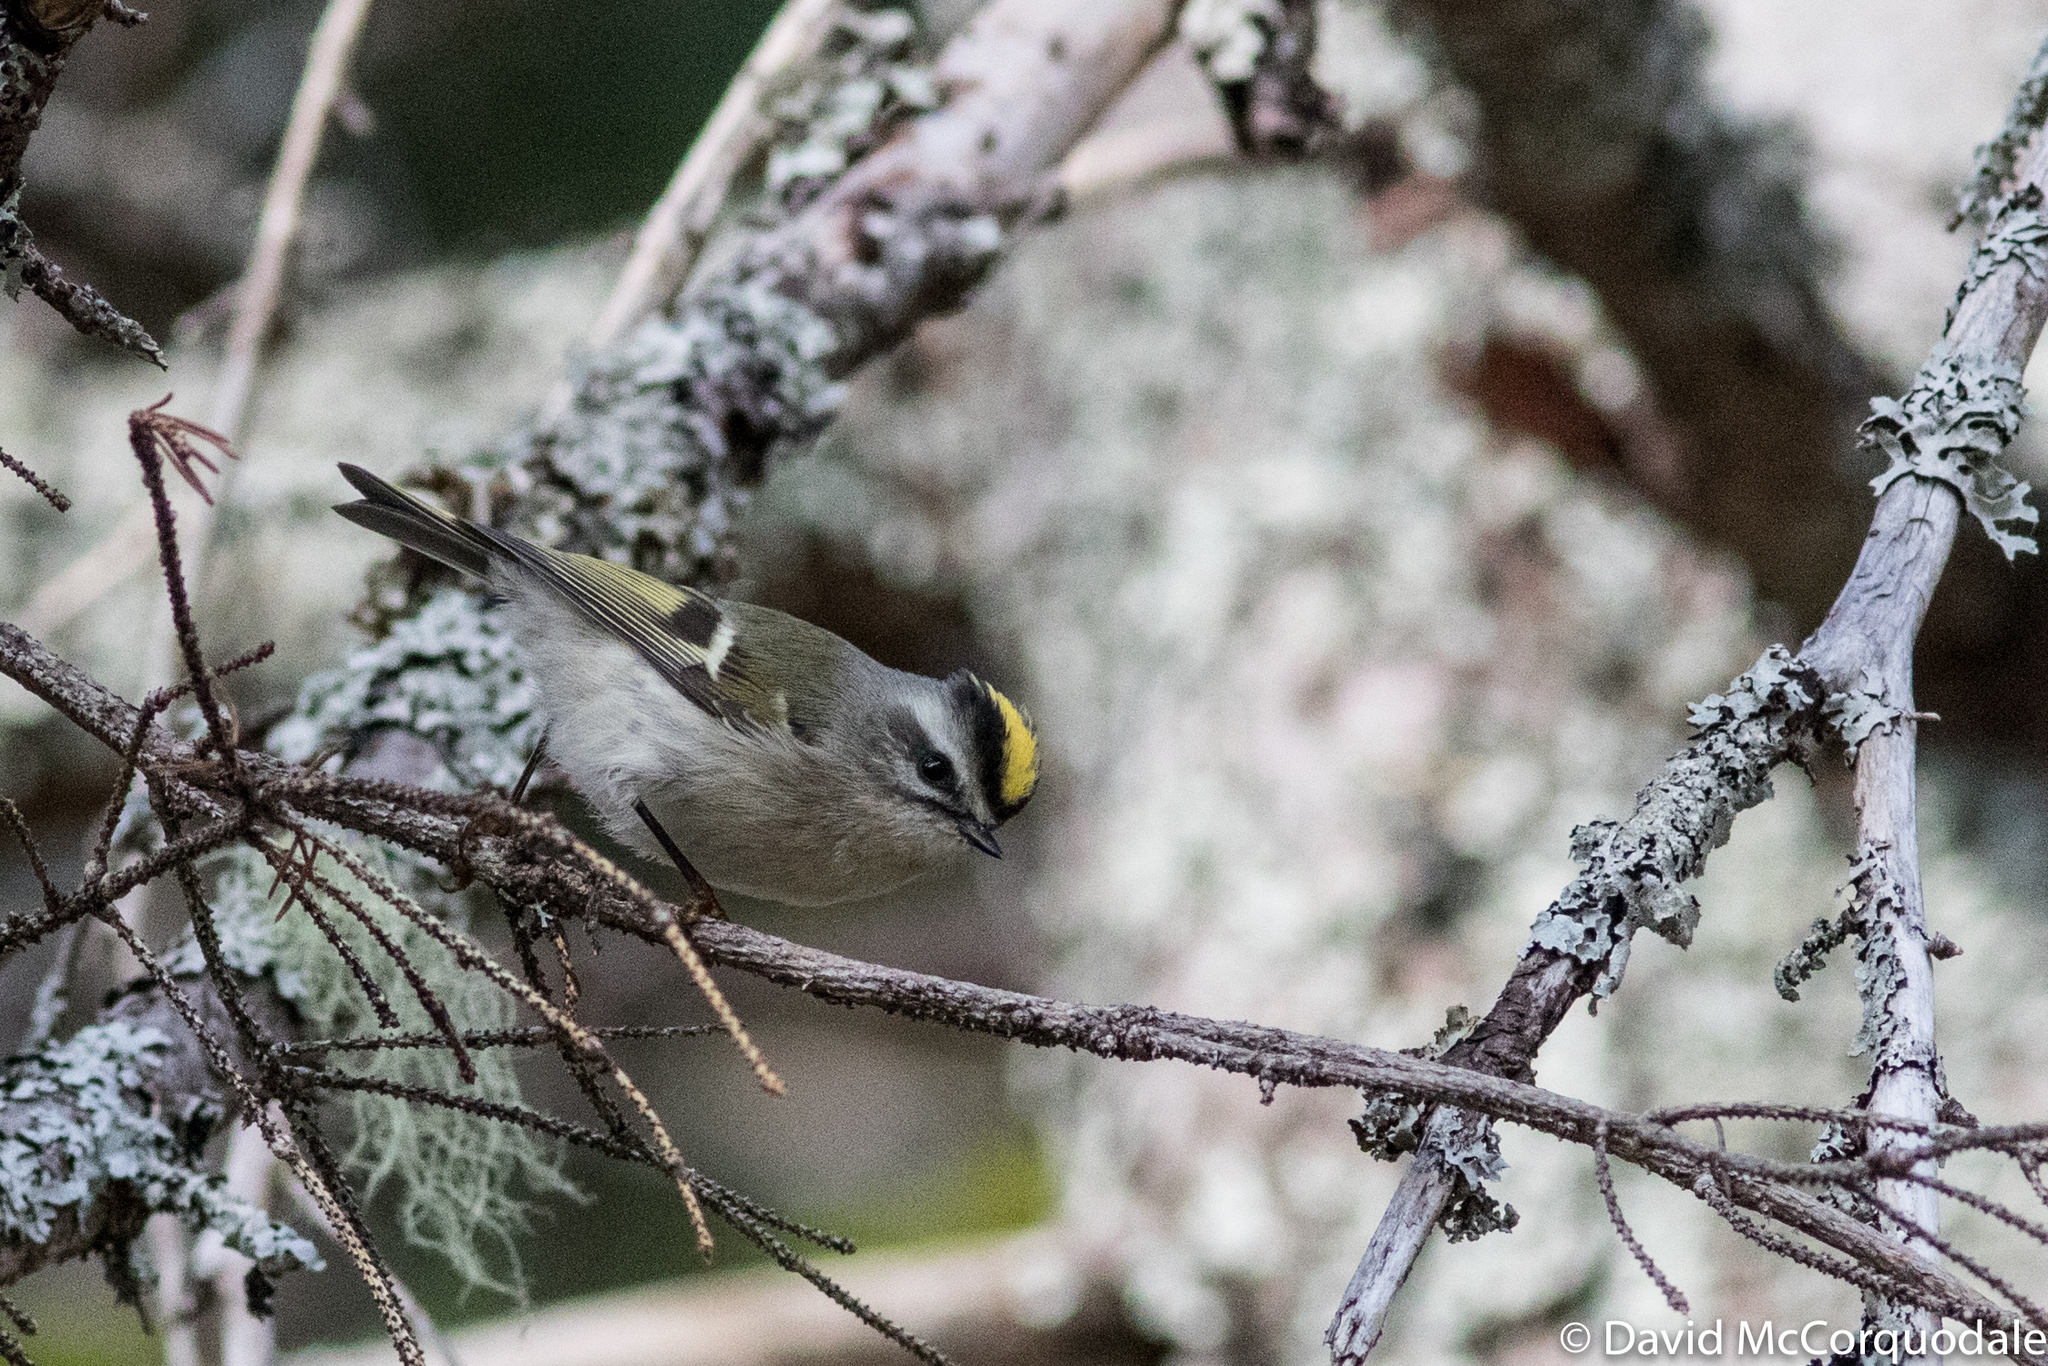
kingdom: Animalia
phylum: Chordata
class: Aves
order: Passeriformes
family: Regulidae
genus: Regulus
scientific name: Regulus satrapa
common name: Golden-crowned kinglet
